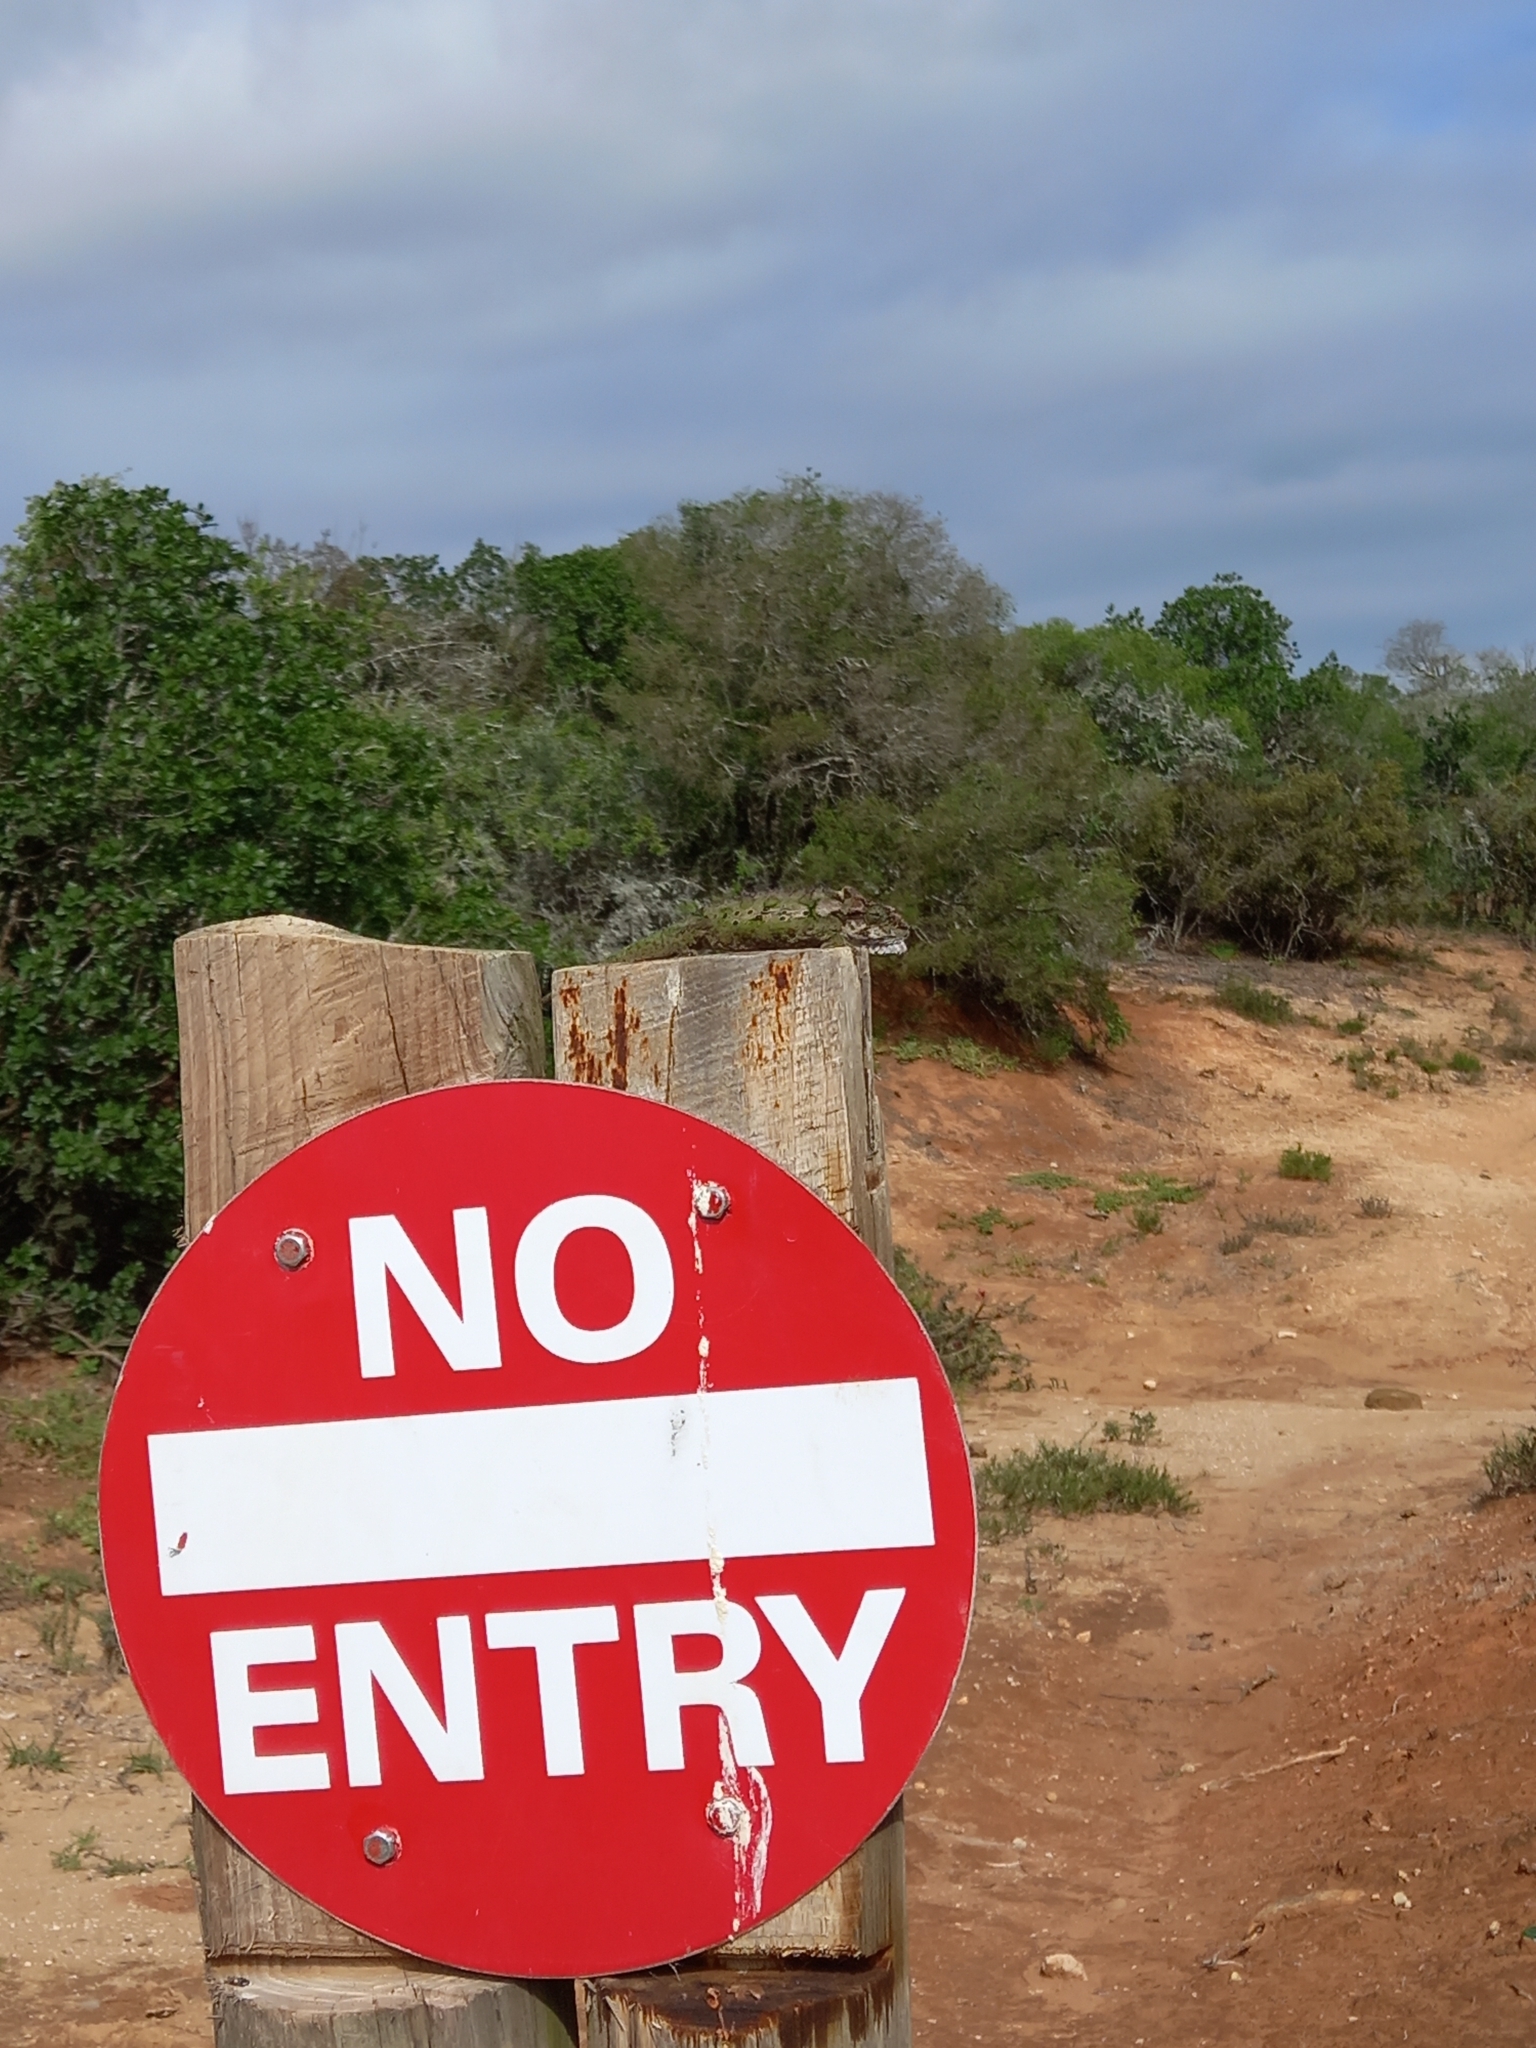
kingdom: Animalia
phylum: Chordata
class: Squamata
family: Chamaeleonidae
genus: Bradypodion
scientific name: Bradypodion ventrale
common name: Eastern cape dwarf chameleon
